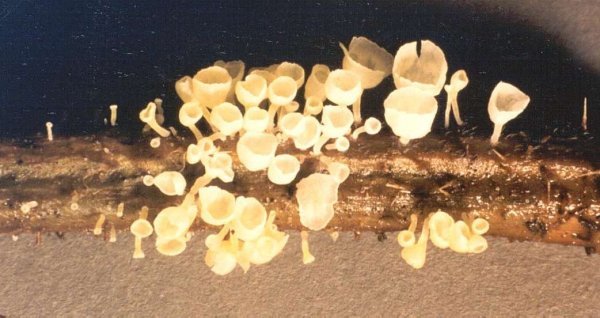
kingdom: Fungi
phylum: Basidiomycota
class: Agaricomycetes
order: Agaricales
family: Marasmiaceae
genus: Calyptella
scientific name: Calyptella capula
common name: Bowl hoodie
